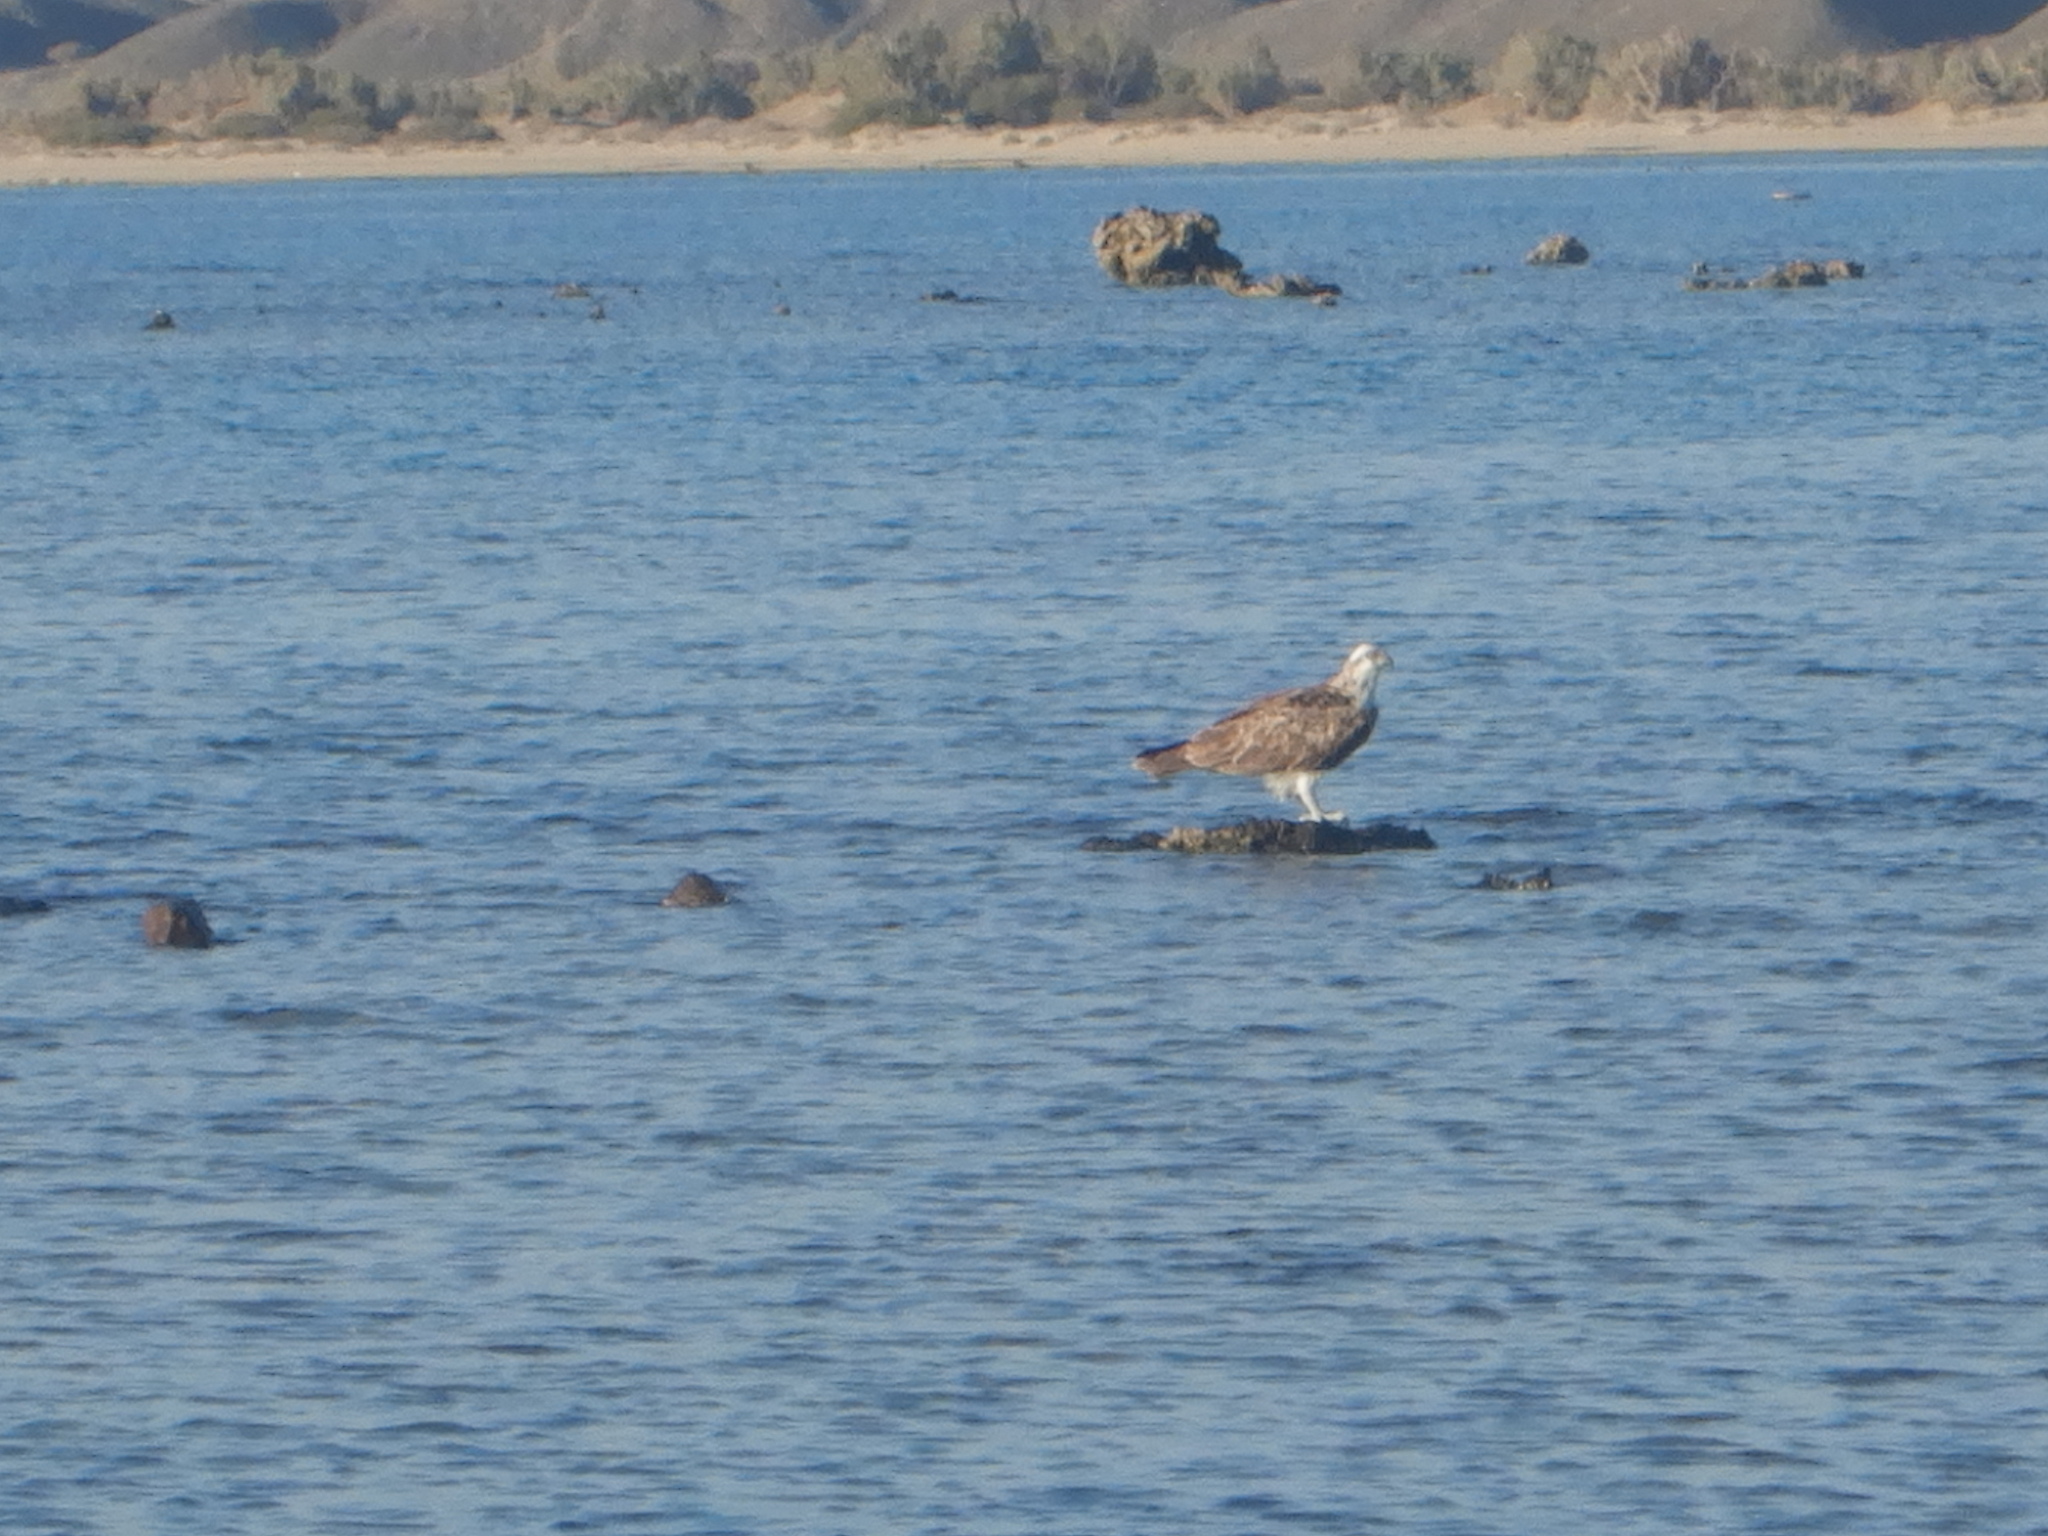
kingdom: Animalia
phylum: Chordata
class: Aves
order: Accipitriformes
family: Pandionidae
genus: Pandion
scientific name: Pandion haliaetus
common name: Osprey
